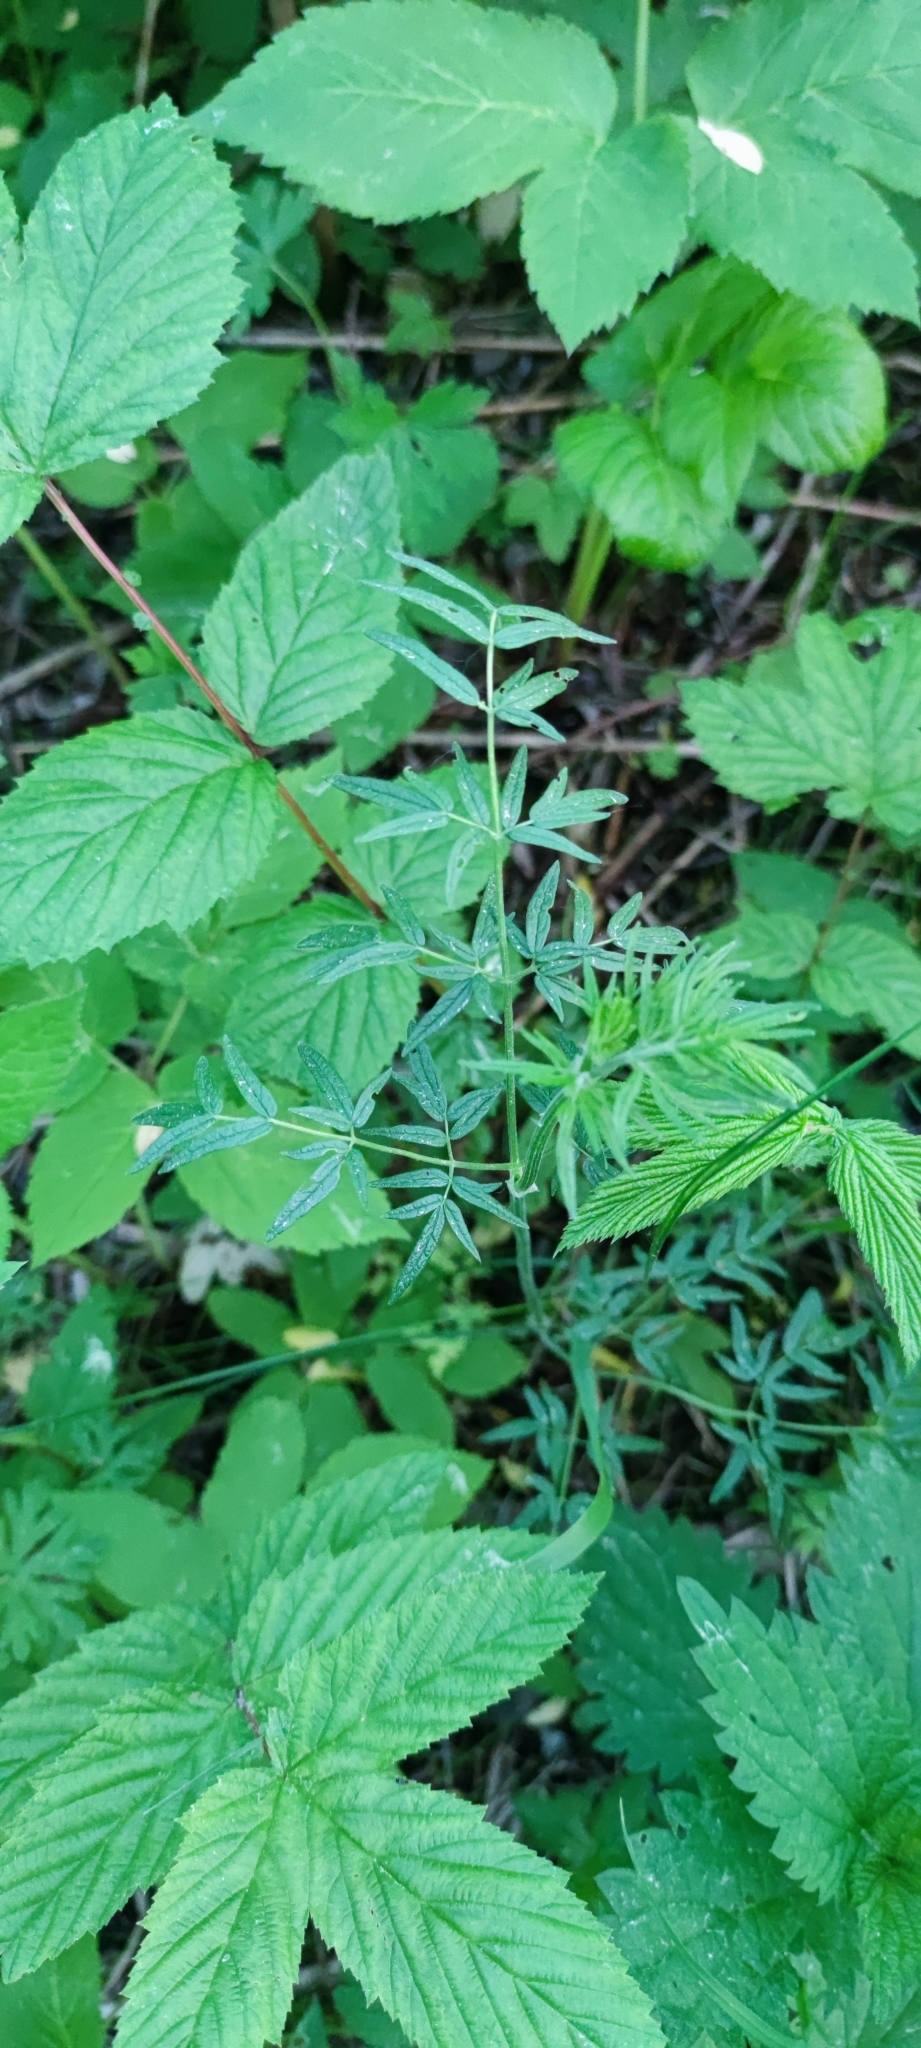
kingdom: Plantae
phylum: Tracheophyta
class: Magnoliopsida
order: Ranunculales
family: Ranunculaceae
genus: Thalictrum
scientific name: Thalictrum lucidum
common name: Shining meadow-rue
